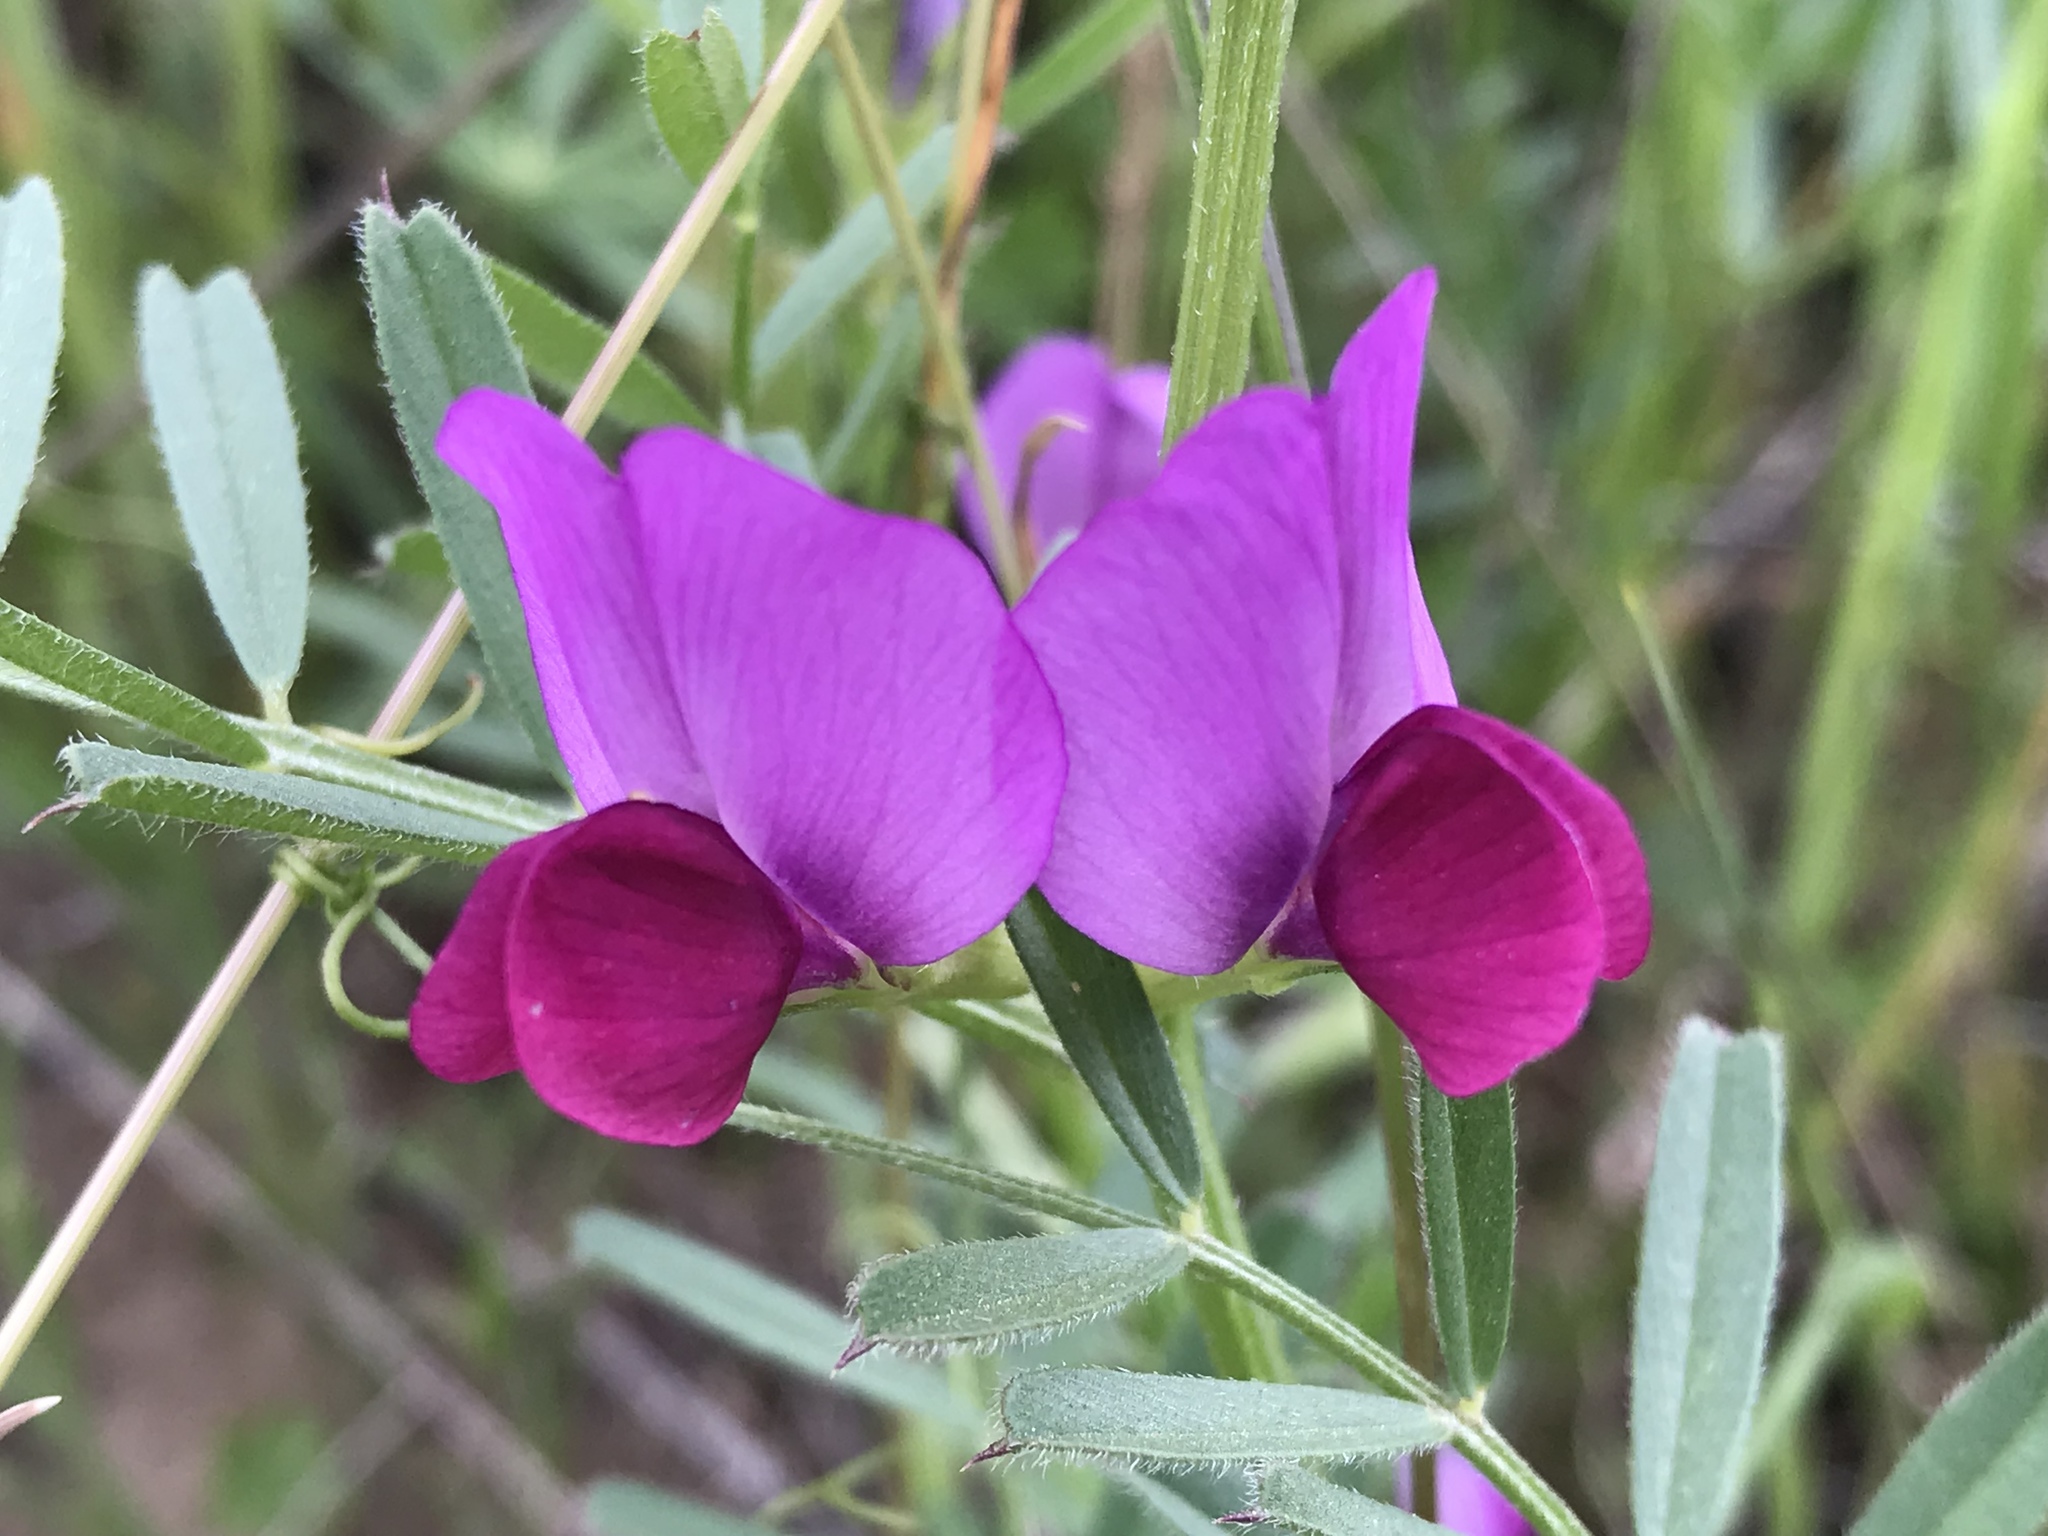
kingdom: Plantae
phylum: Tracheophyta
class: Magnoliopsida
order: Fabales
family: Fabaceae
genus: Vicia
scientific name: Vicia sativa
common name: Garden vetch
